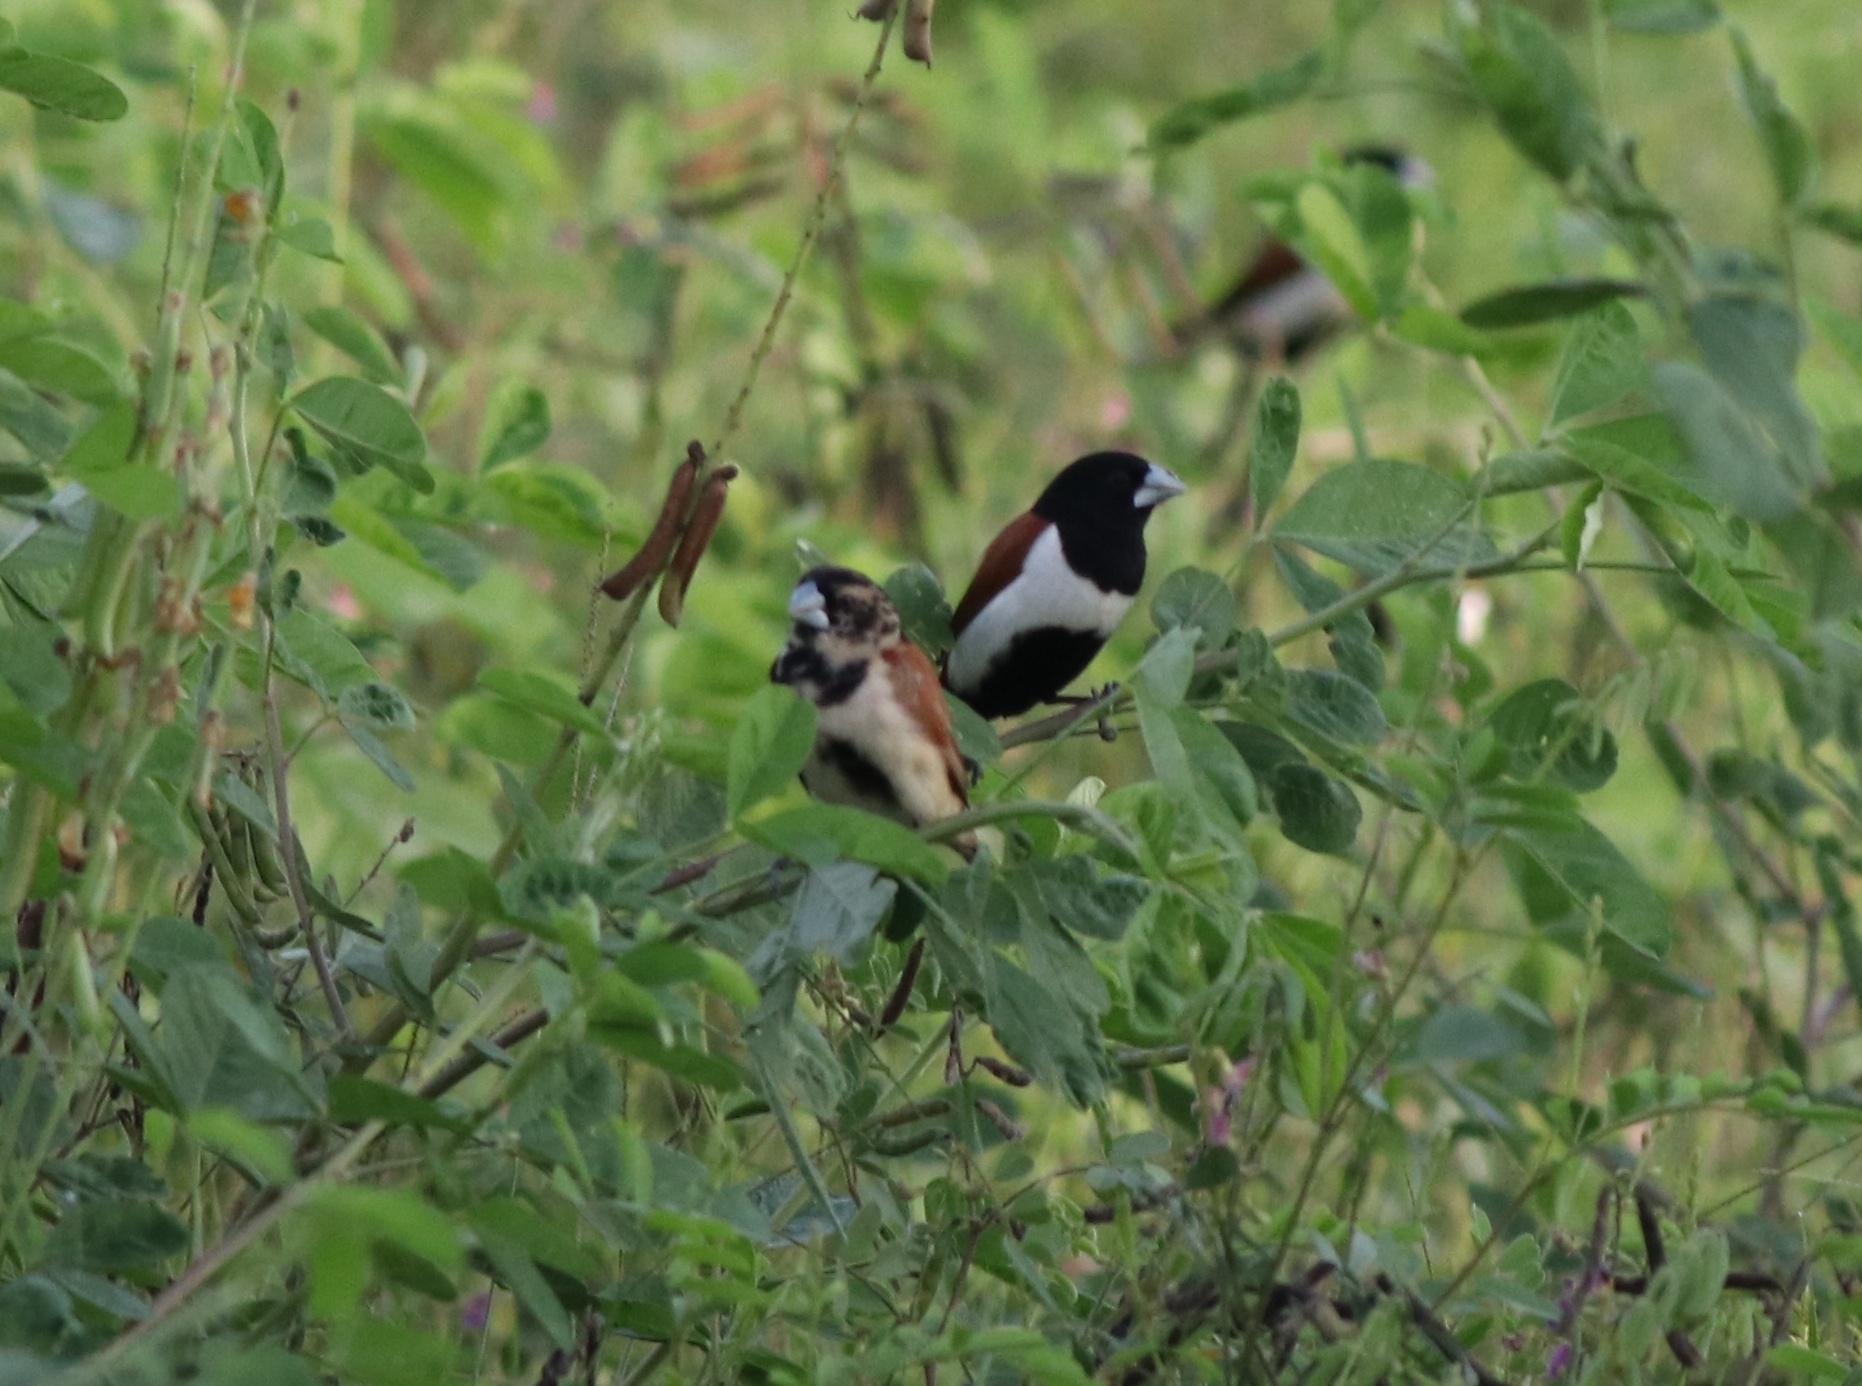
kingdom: Animalia
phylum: Chordata
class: Aves
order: Passeriformes
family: Estrildidae
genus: Lonchura
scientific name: Lonchura malacca
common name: Tricolored munia
